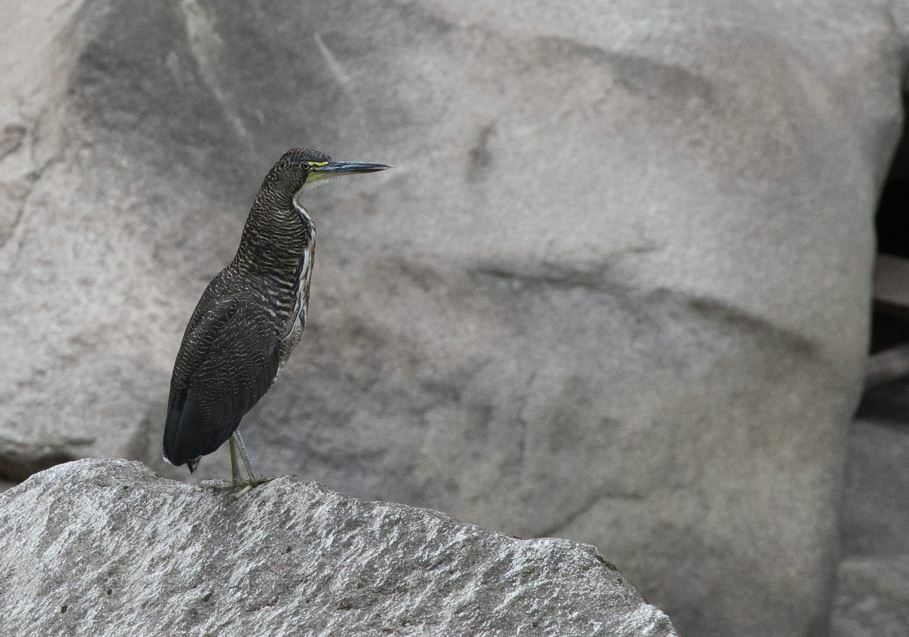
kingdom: Animalia
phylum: Chordata
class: Aves
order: Pelecaniformes
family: Ardeidae
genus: Tigrisoma
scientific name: Tigrisoma fasciatum
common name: Fasciated tiger-heron
